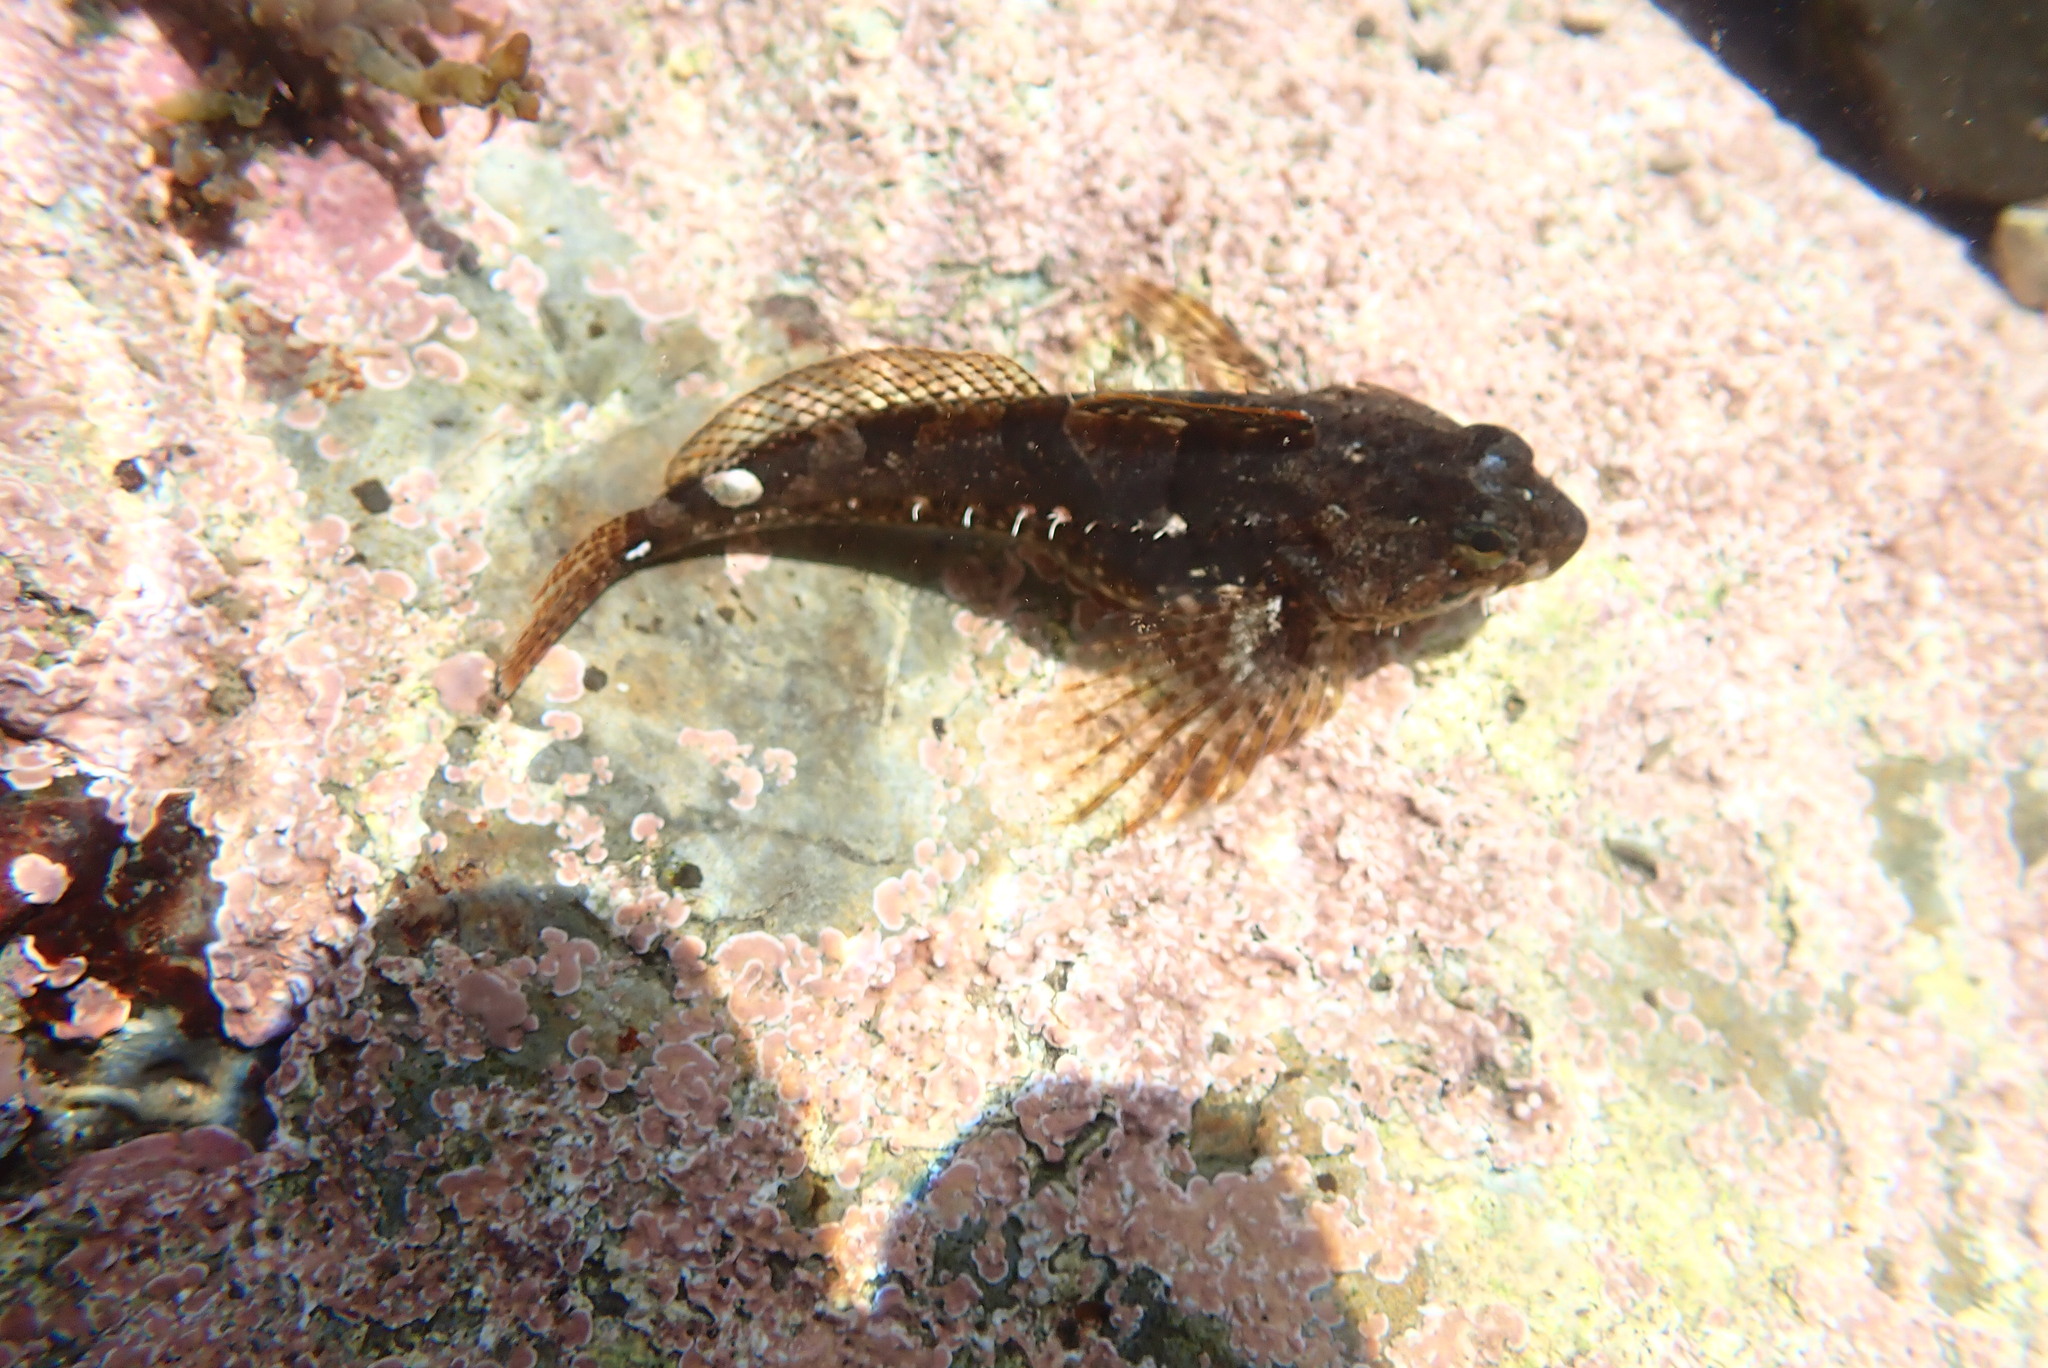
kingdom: Animalia
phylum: Chordata
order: Scorpaeniformes
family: Cottidae
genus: Oligocottus
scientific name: Oligocottus maculosus
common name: Tidepool sculpin
